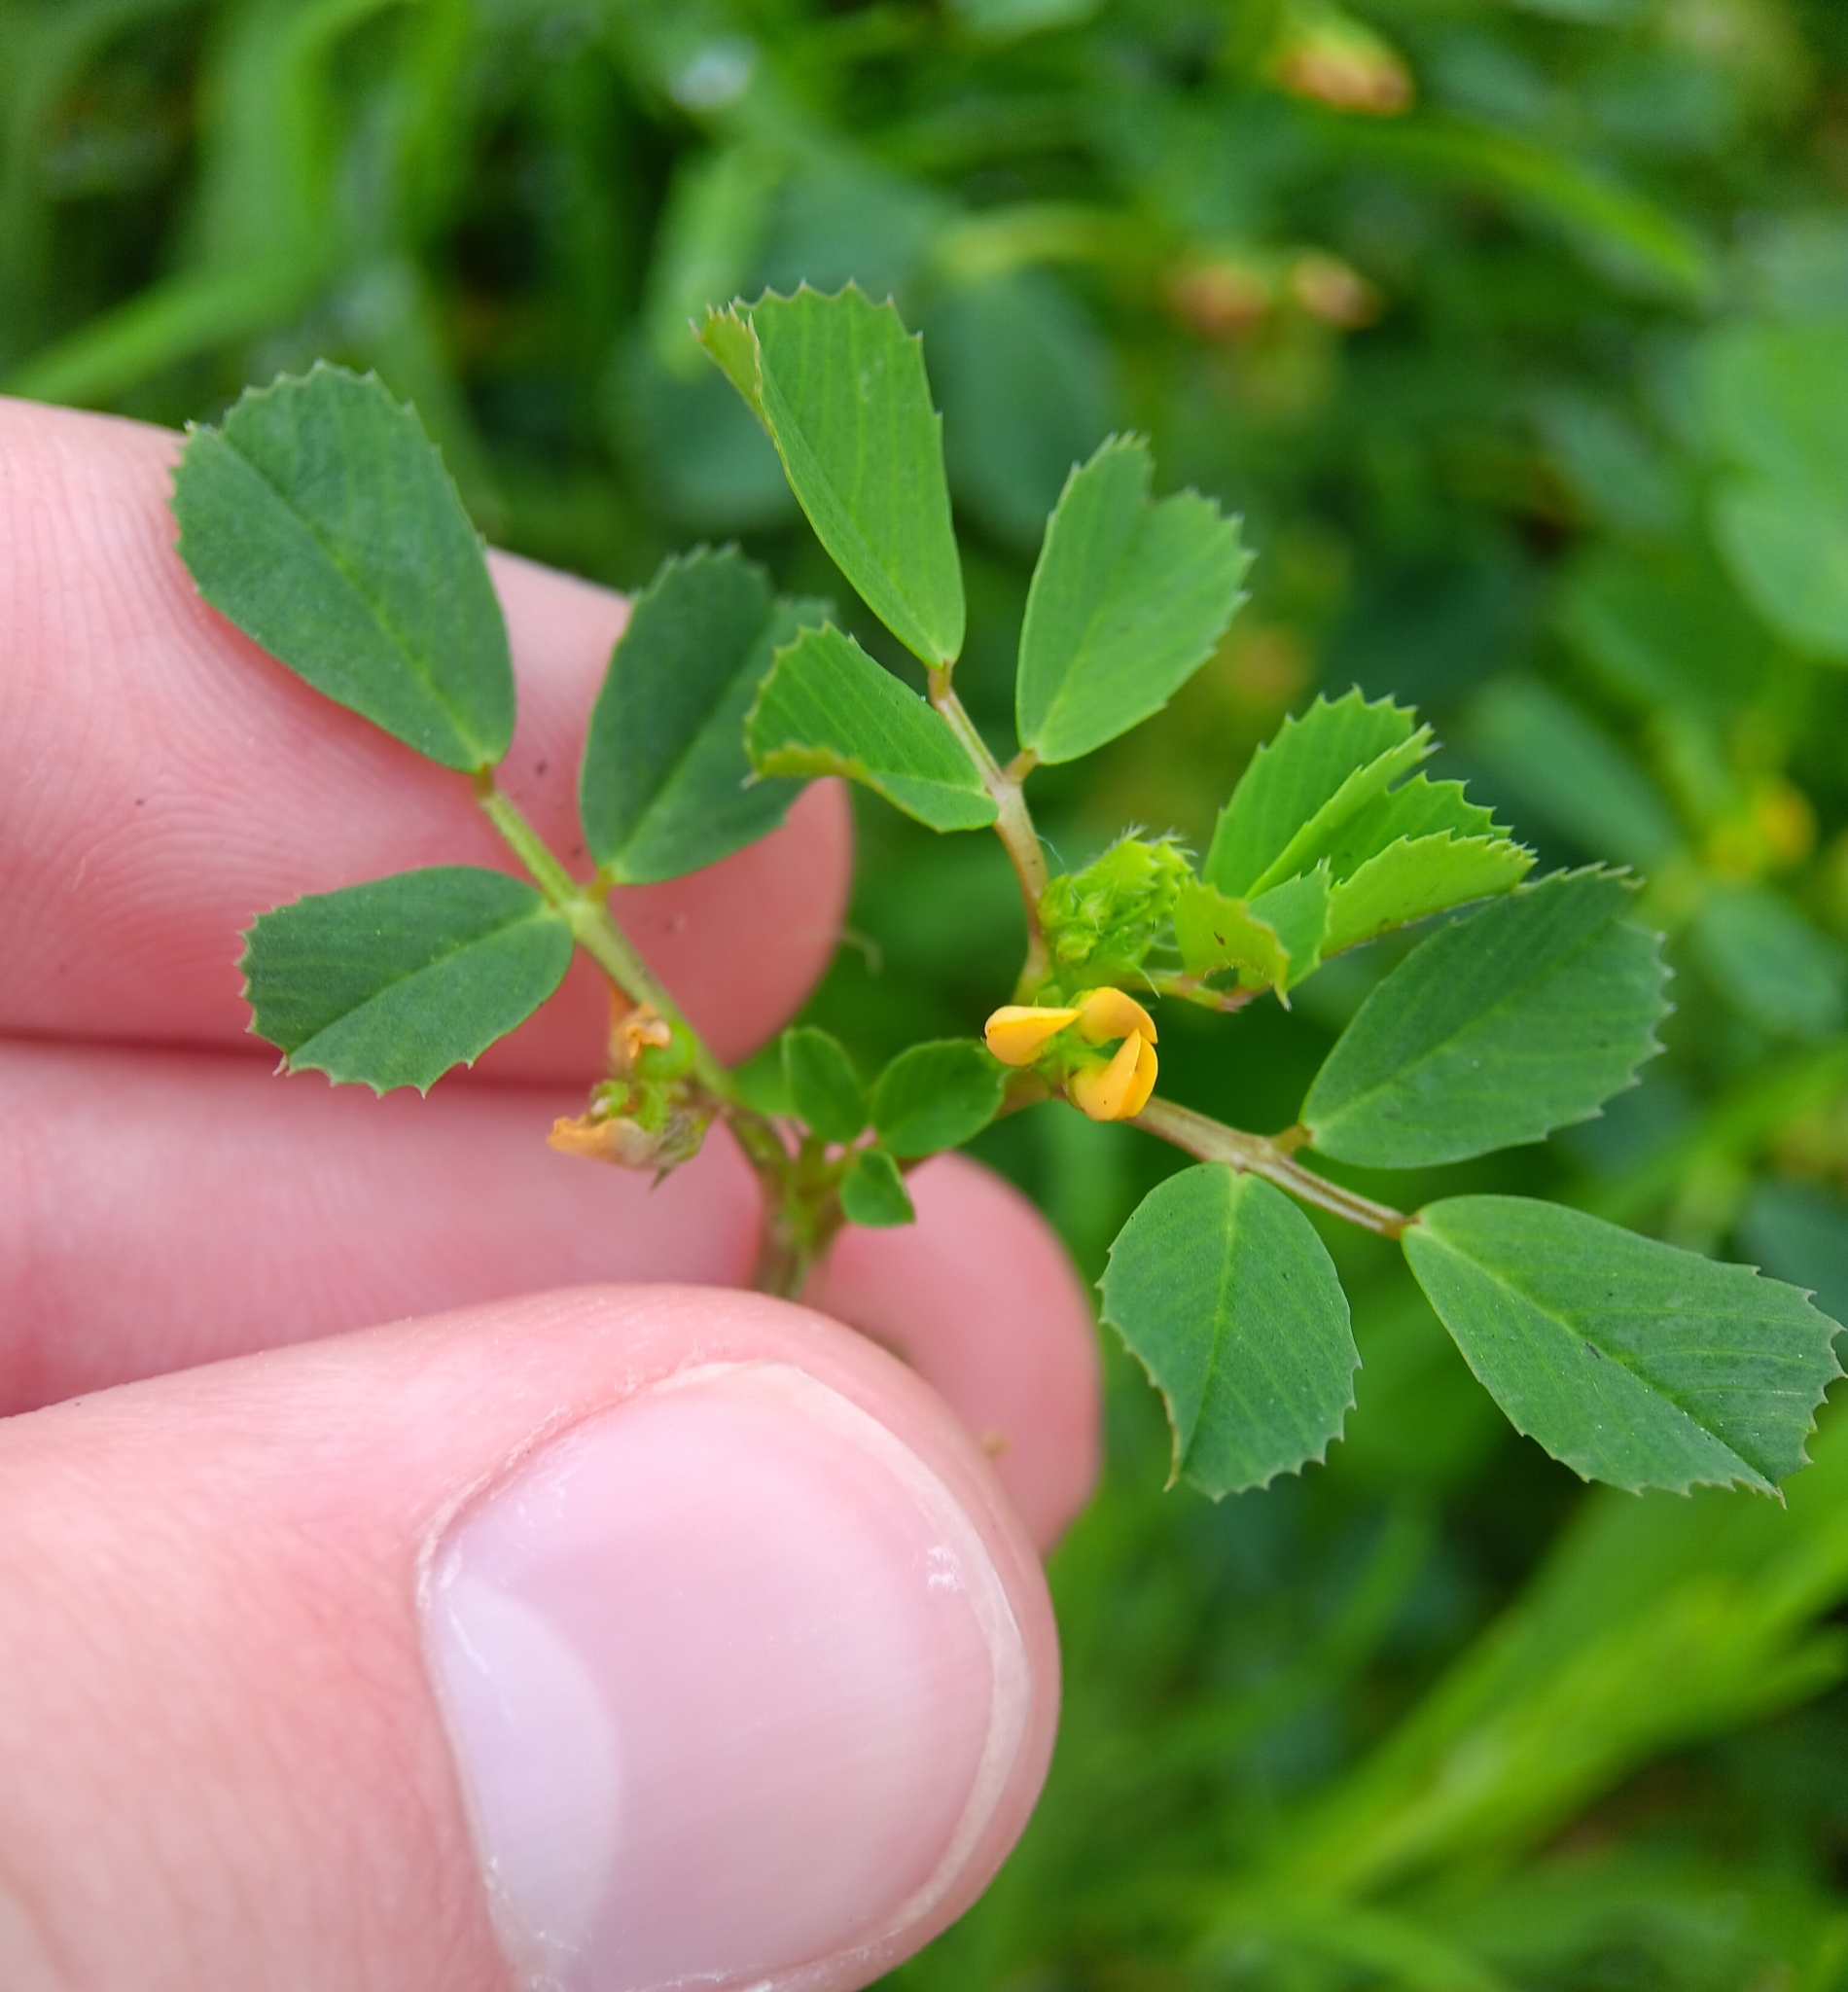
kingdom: Plantae
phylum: Tracheophyta
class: Magnoliopsida
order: Fabales
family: Fabaceae
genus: Medicago
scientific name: Medicago polymorpha
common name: Burclover
